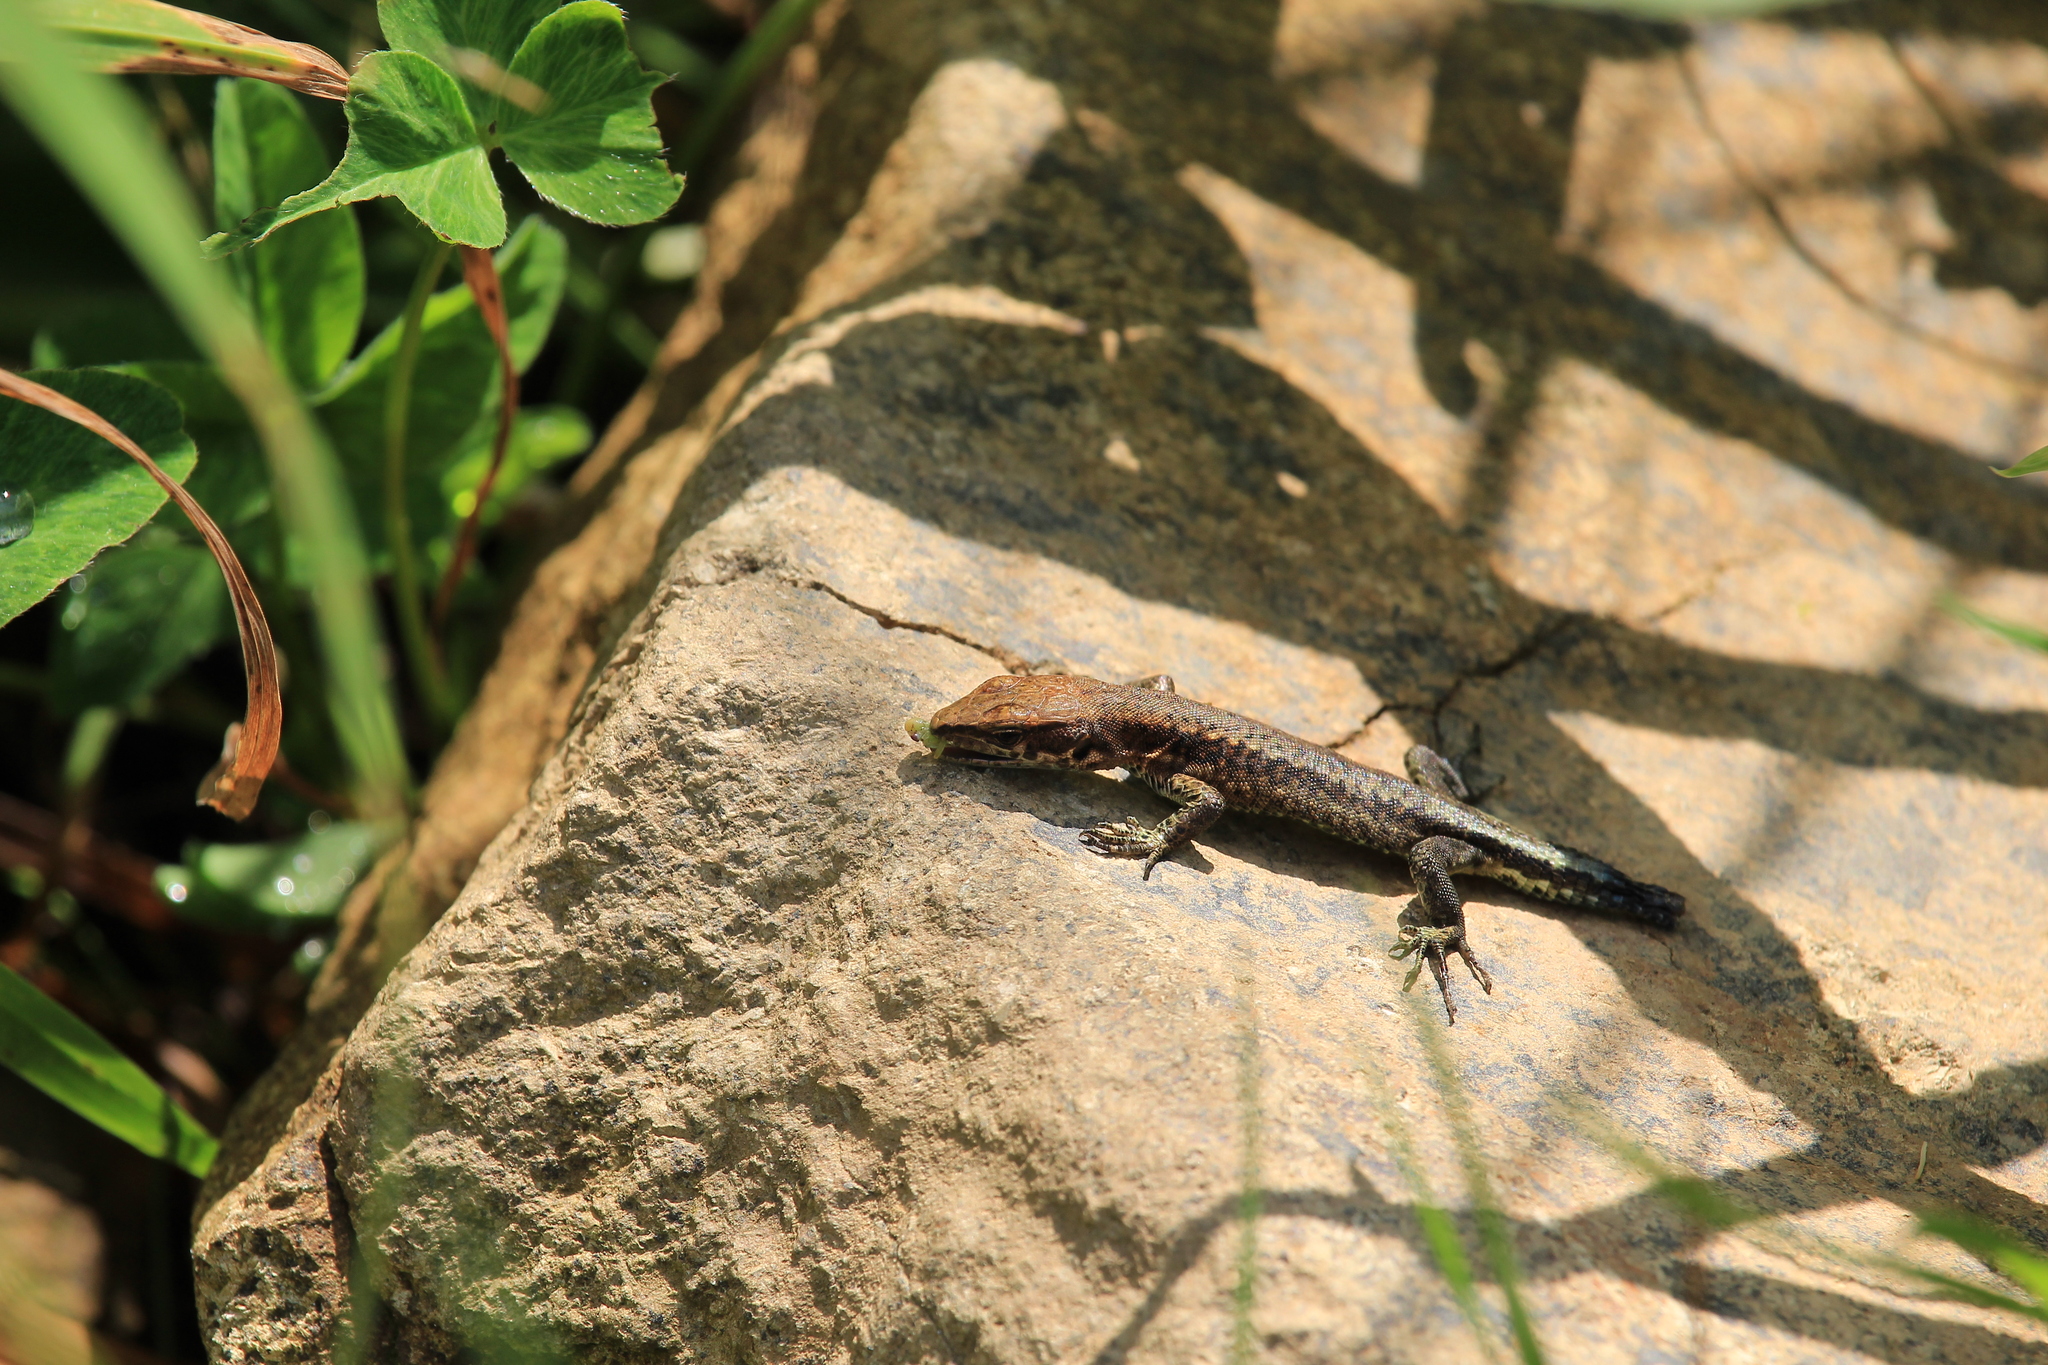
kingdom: Animalia
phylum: Chordata
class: Squamata
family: Lacertidae
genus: Darevskia
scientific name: Darevskia derjugini
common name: Derjugin's lizard
